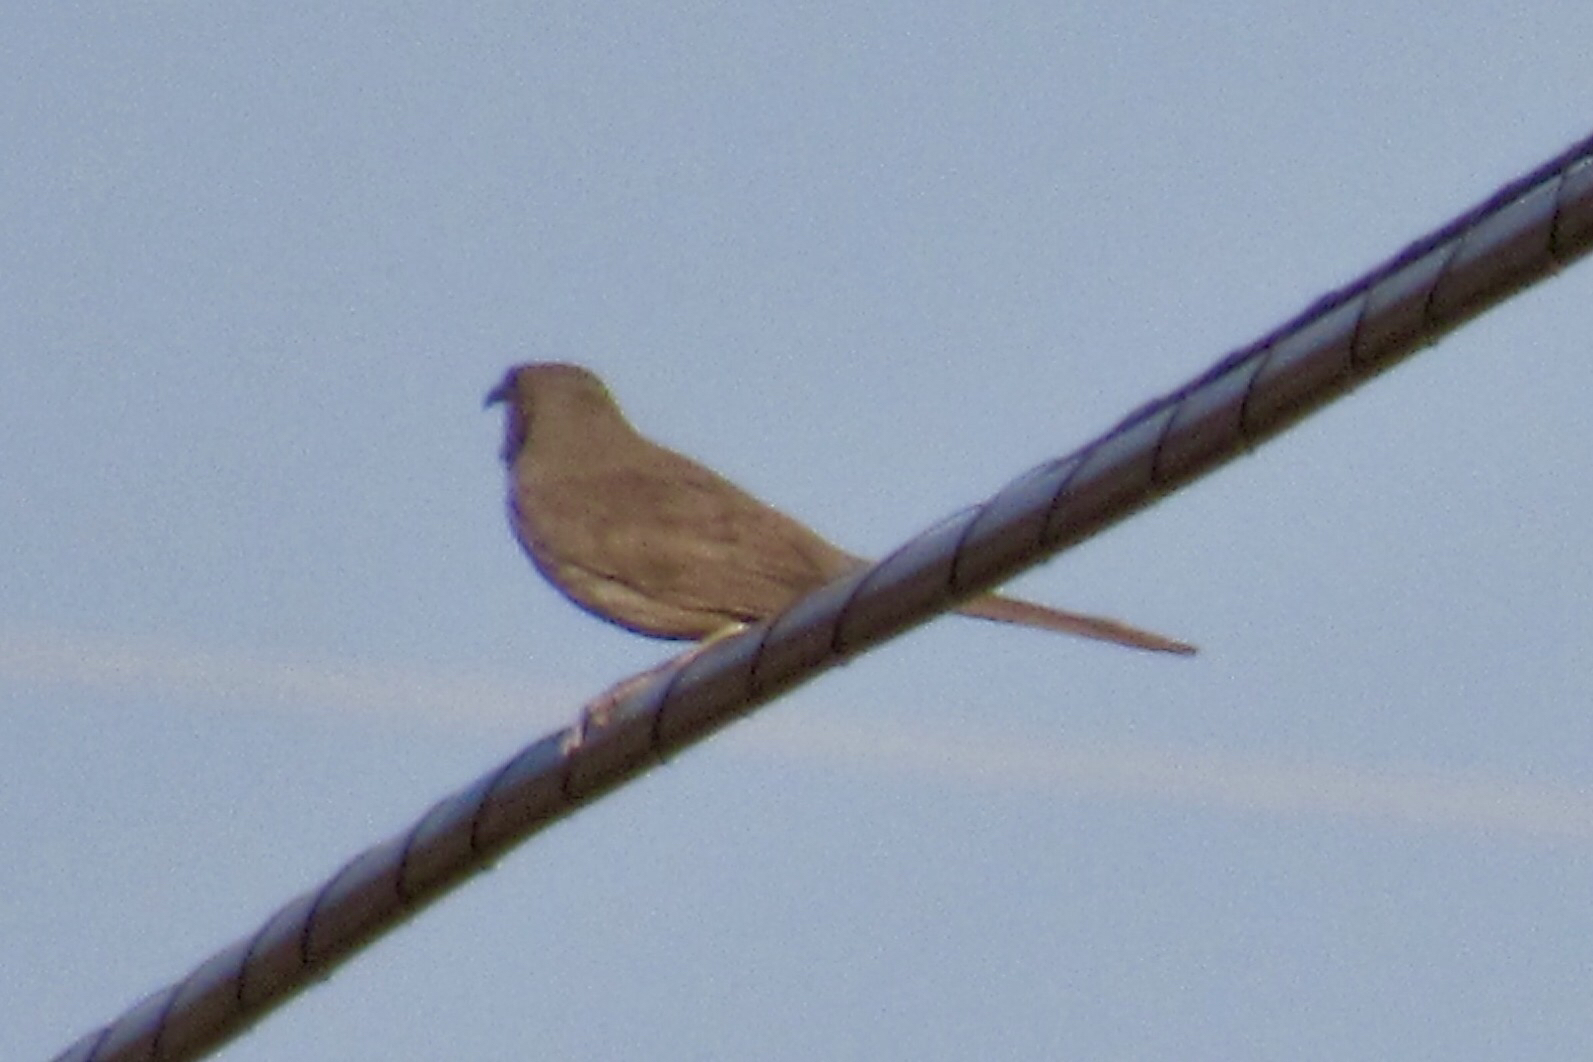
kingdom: Animalia
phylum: Chordata
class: Aves
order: Passeriformes
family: Mimidae
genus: Toxostoma
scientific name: Toxostoma curvirostre
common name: Curve-billed thrasher
